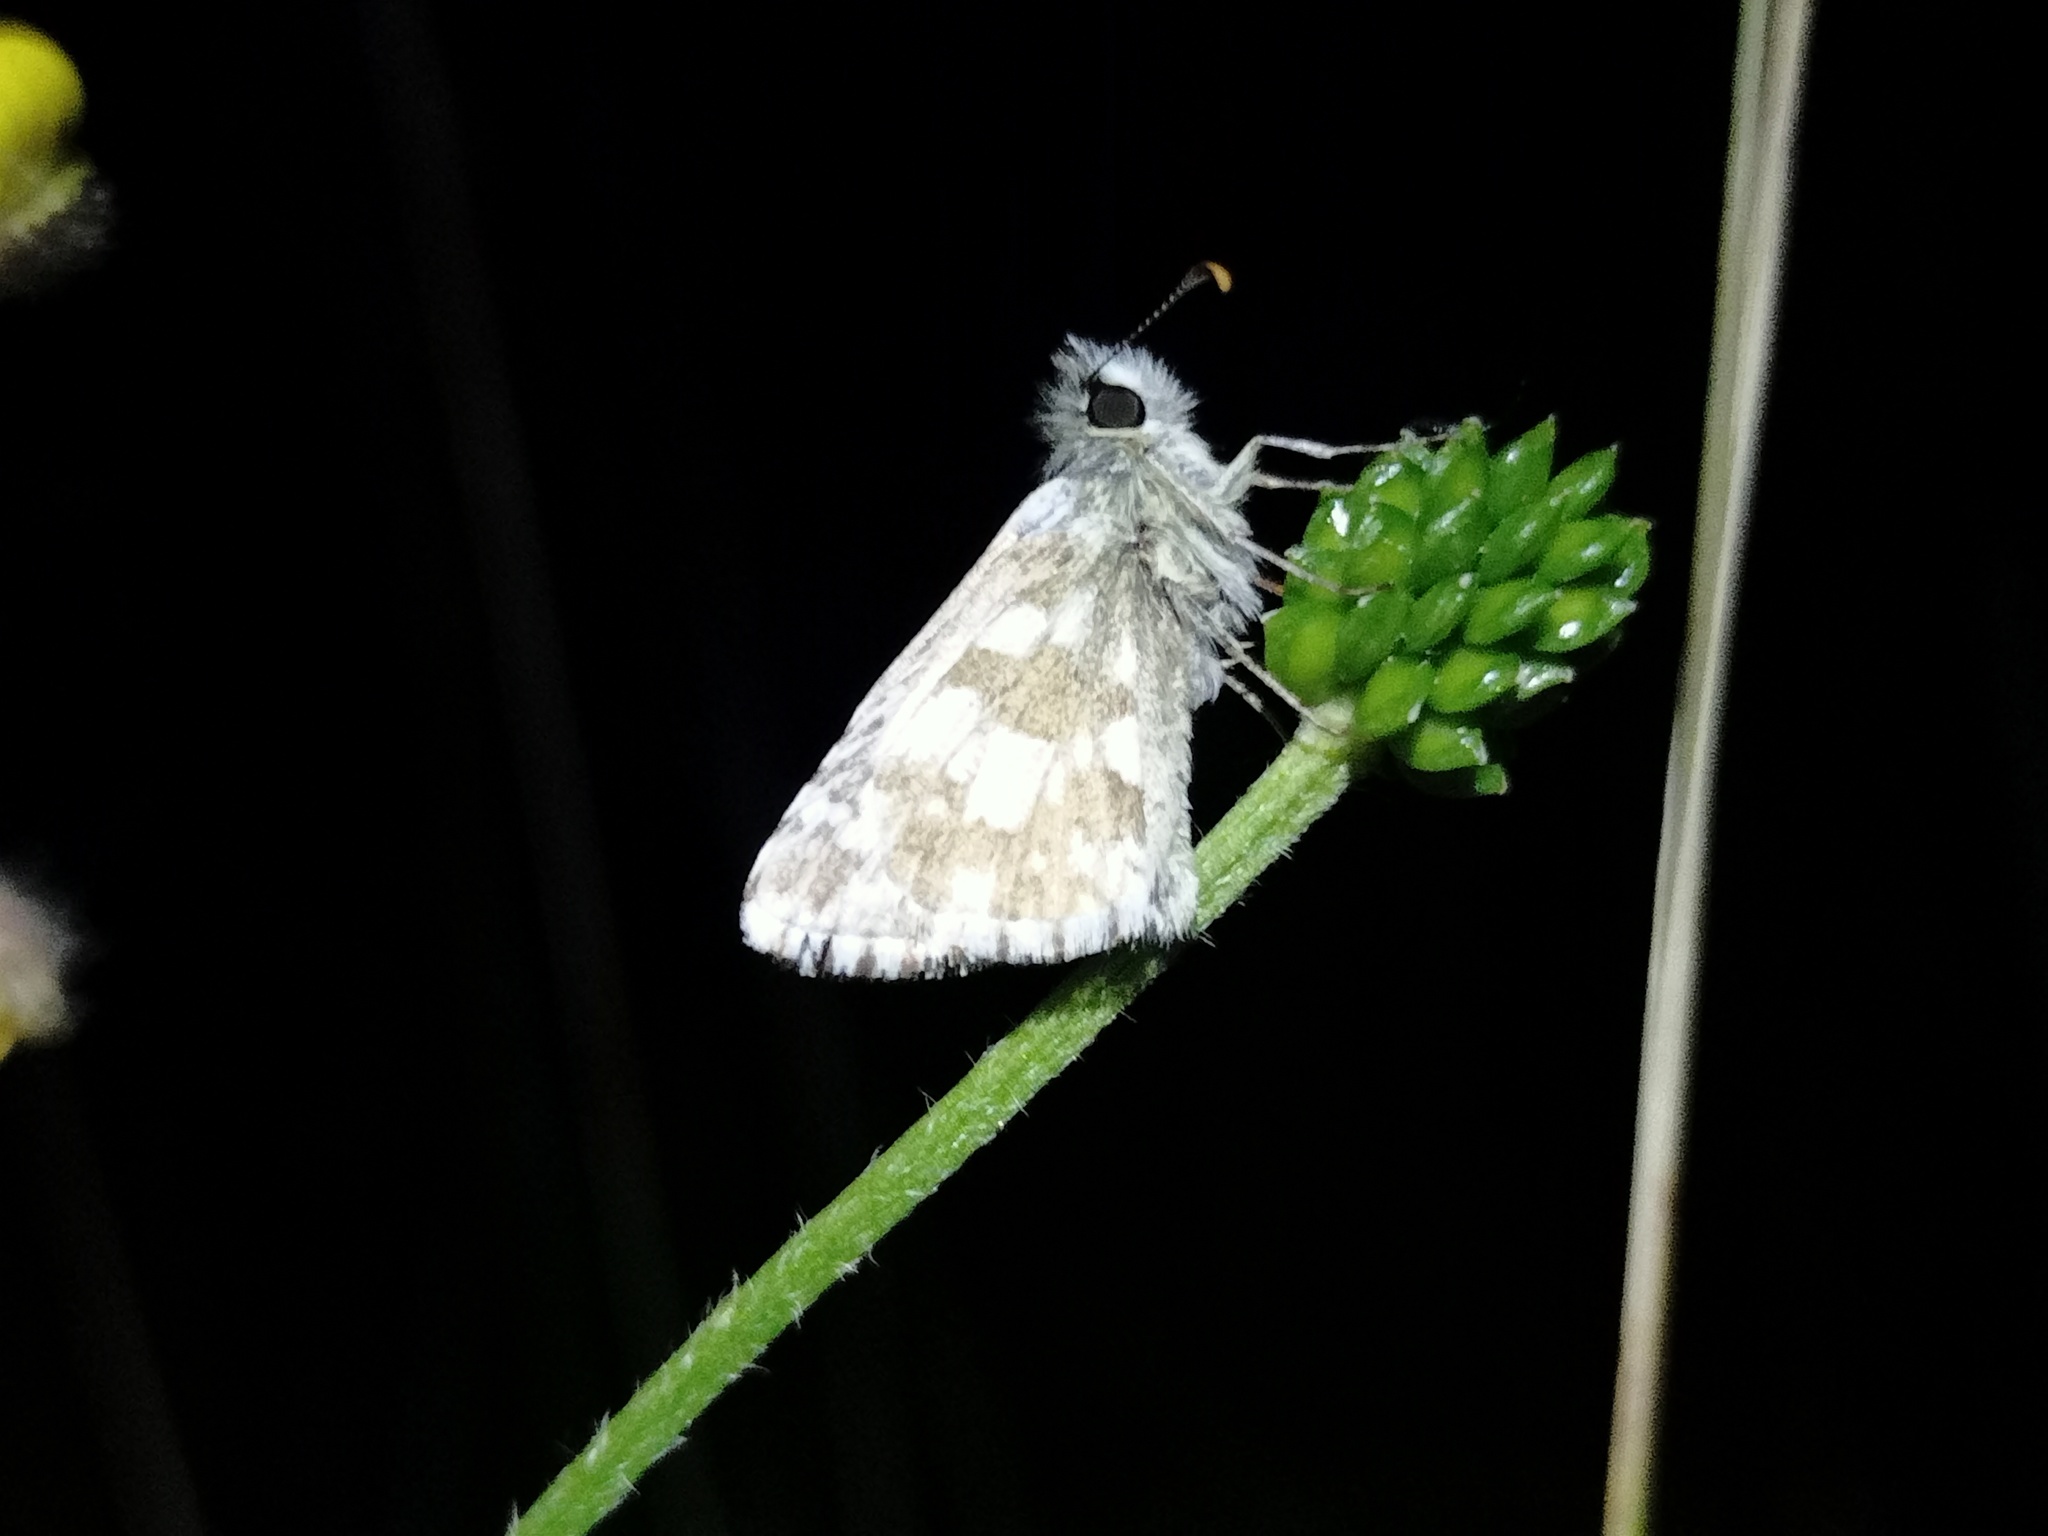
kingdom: Animalia
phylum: Arthropoda
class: Insecta
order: Lepidoptera
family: Hesperiidae
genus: Pyrgus
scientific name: Pyrgus armoricanus
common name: Oberthür's grizzled skipper
